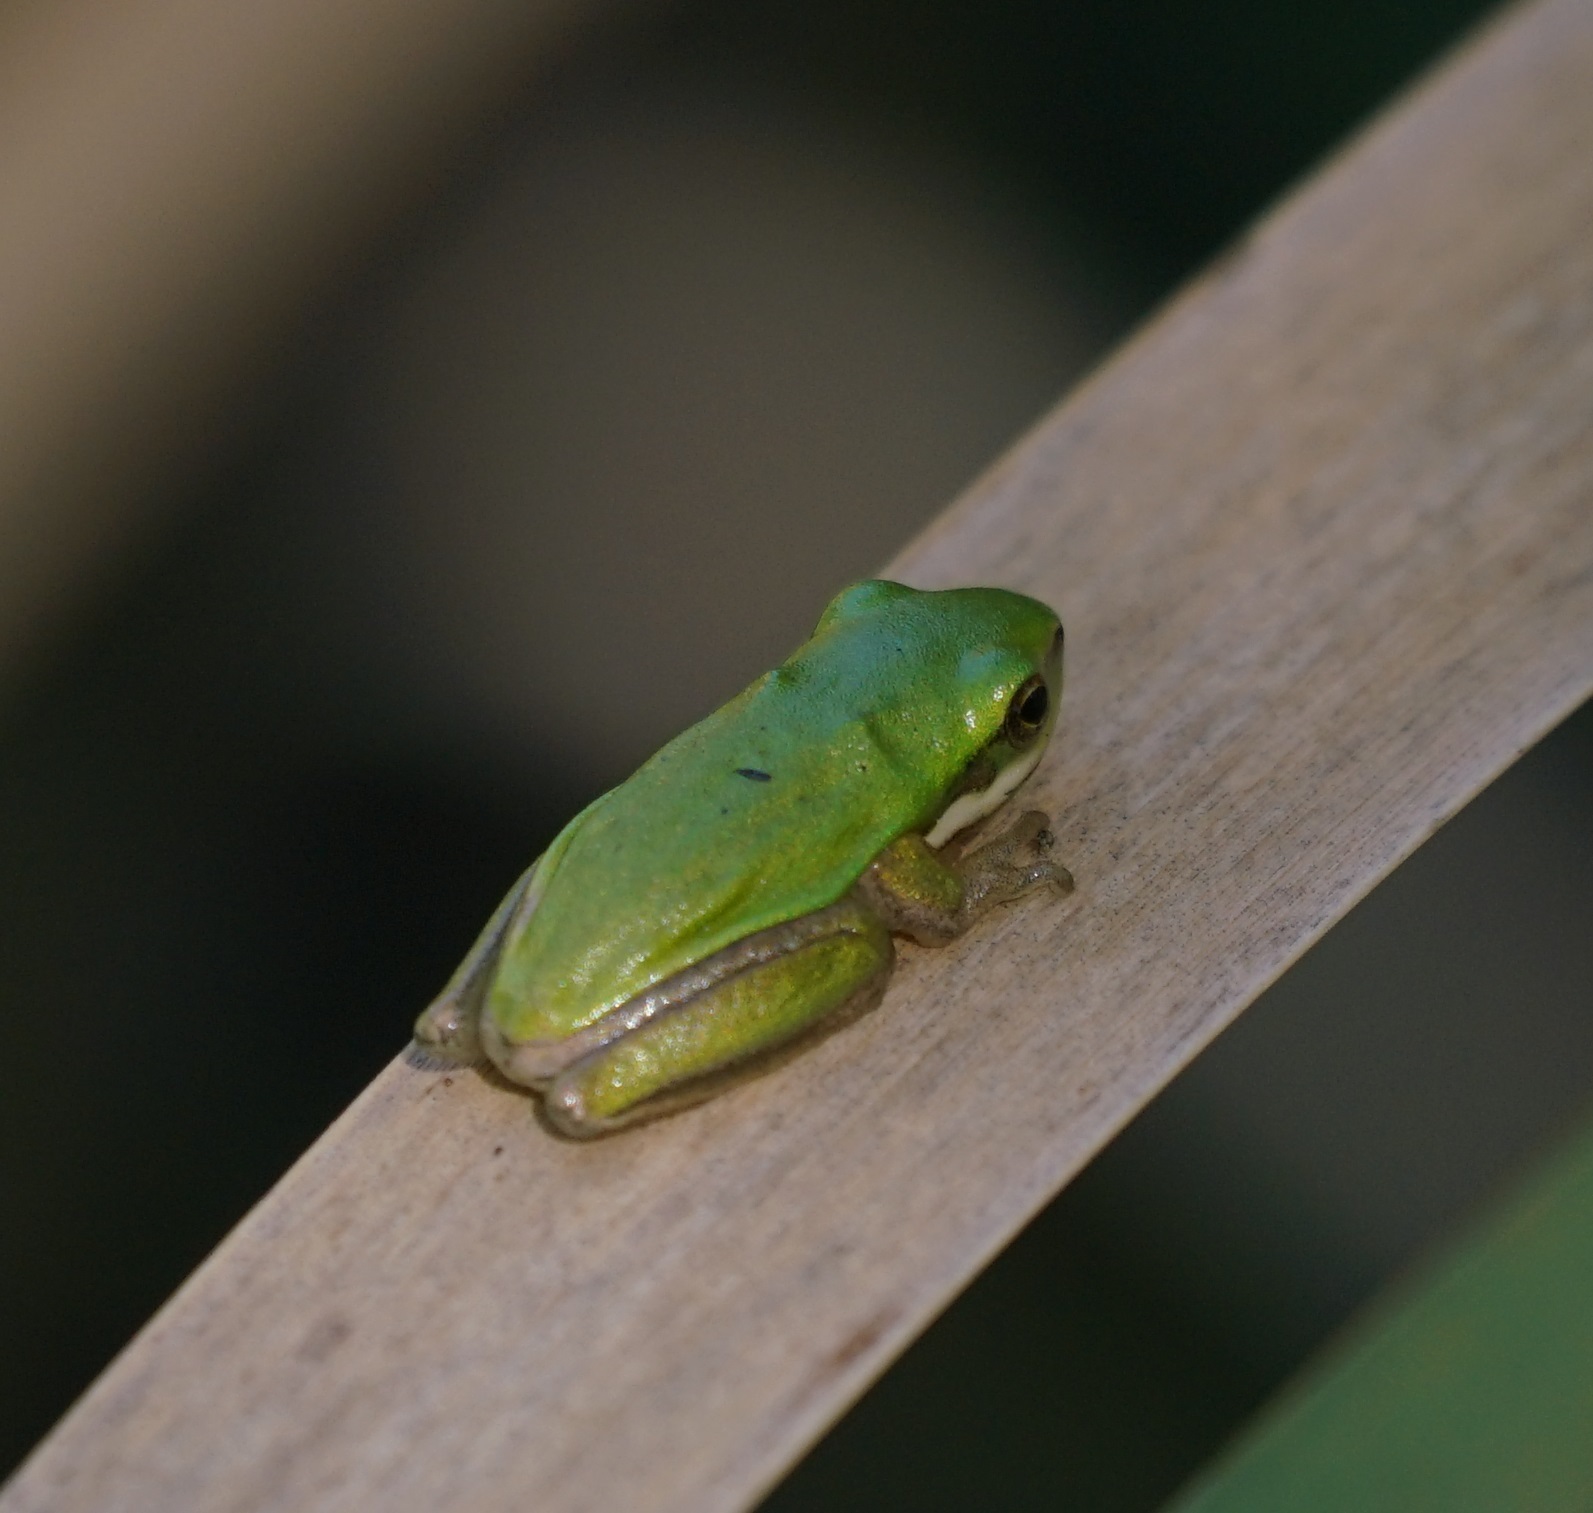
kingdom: Animalia
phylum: Chordata
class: Amphibia
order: Anura
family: Pelodryadidae
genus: Litoria
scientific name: Litoria fallax
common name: Eastern dwarf treefrog
